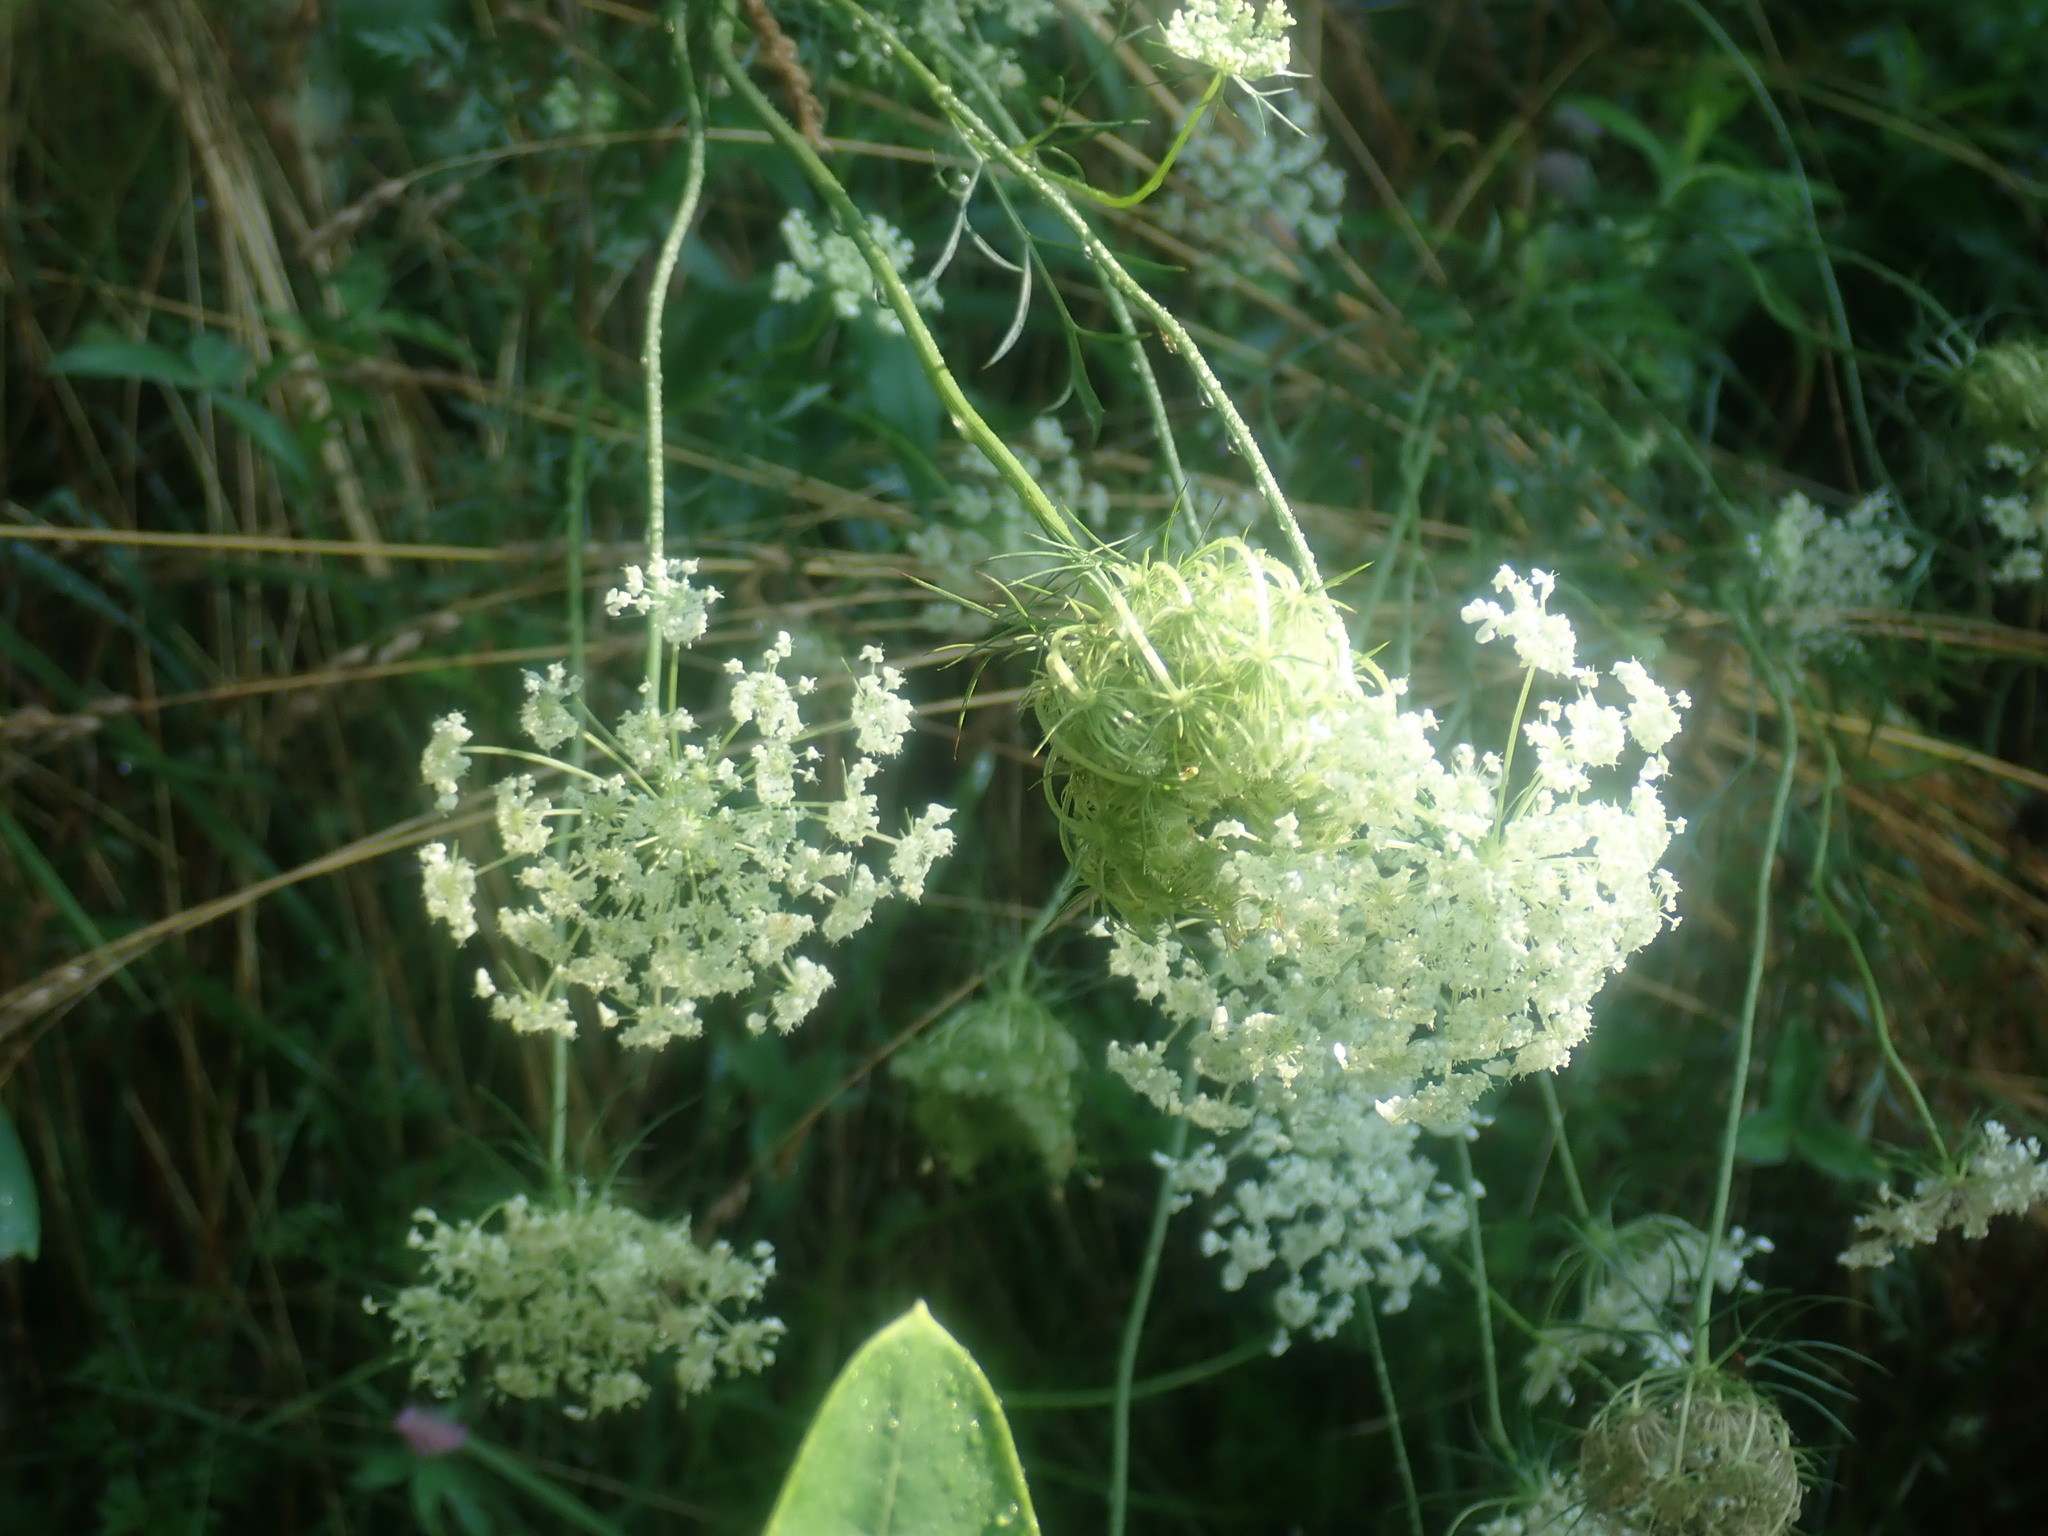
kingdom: Plantae
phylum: Tracheophyta
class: Magnoliopsida
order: Apiales
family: Apiaceae
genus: Daucus
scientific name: Daucus carota
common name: Wild carrot
